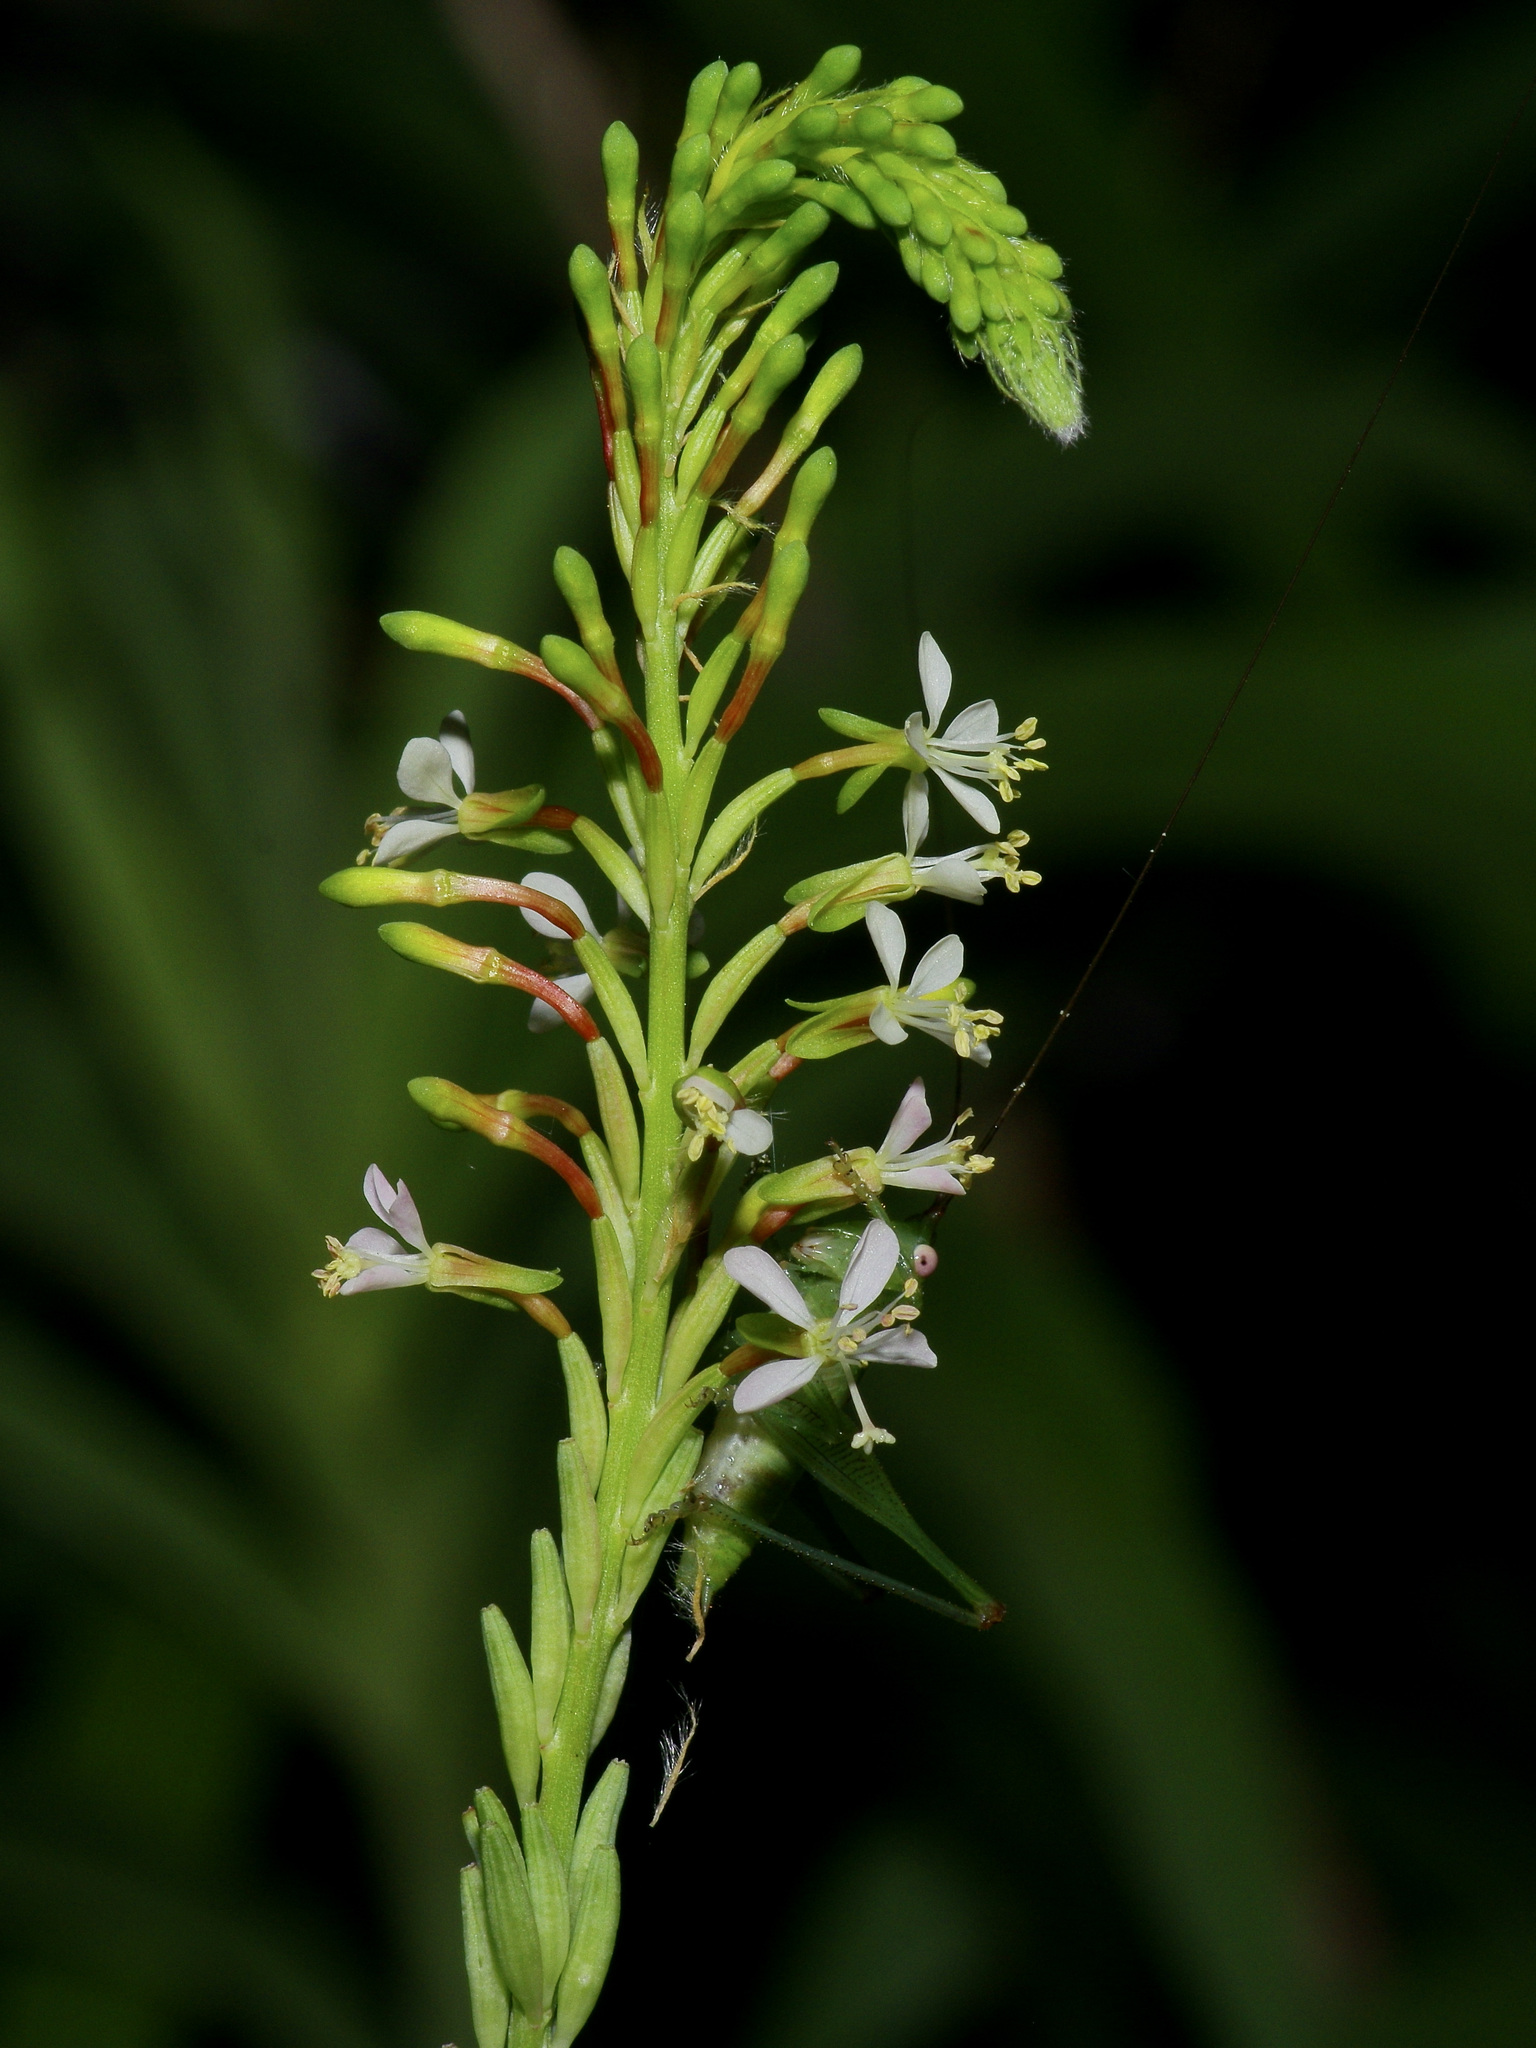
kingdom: Plantae
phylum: Tracheophyta
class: Magnoliopsida
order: Myrtales
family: Onagraceae
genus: Oenothera
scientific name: Oenothera curtiflora
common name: Velvetweed
